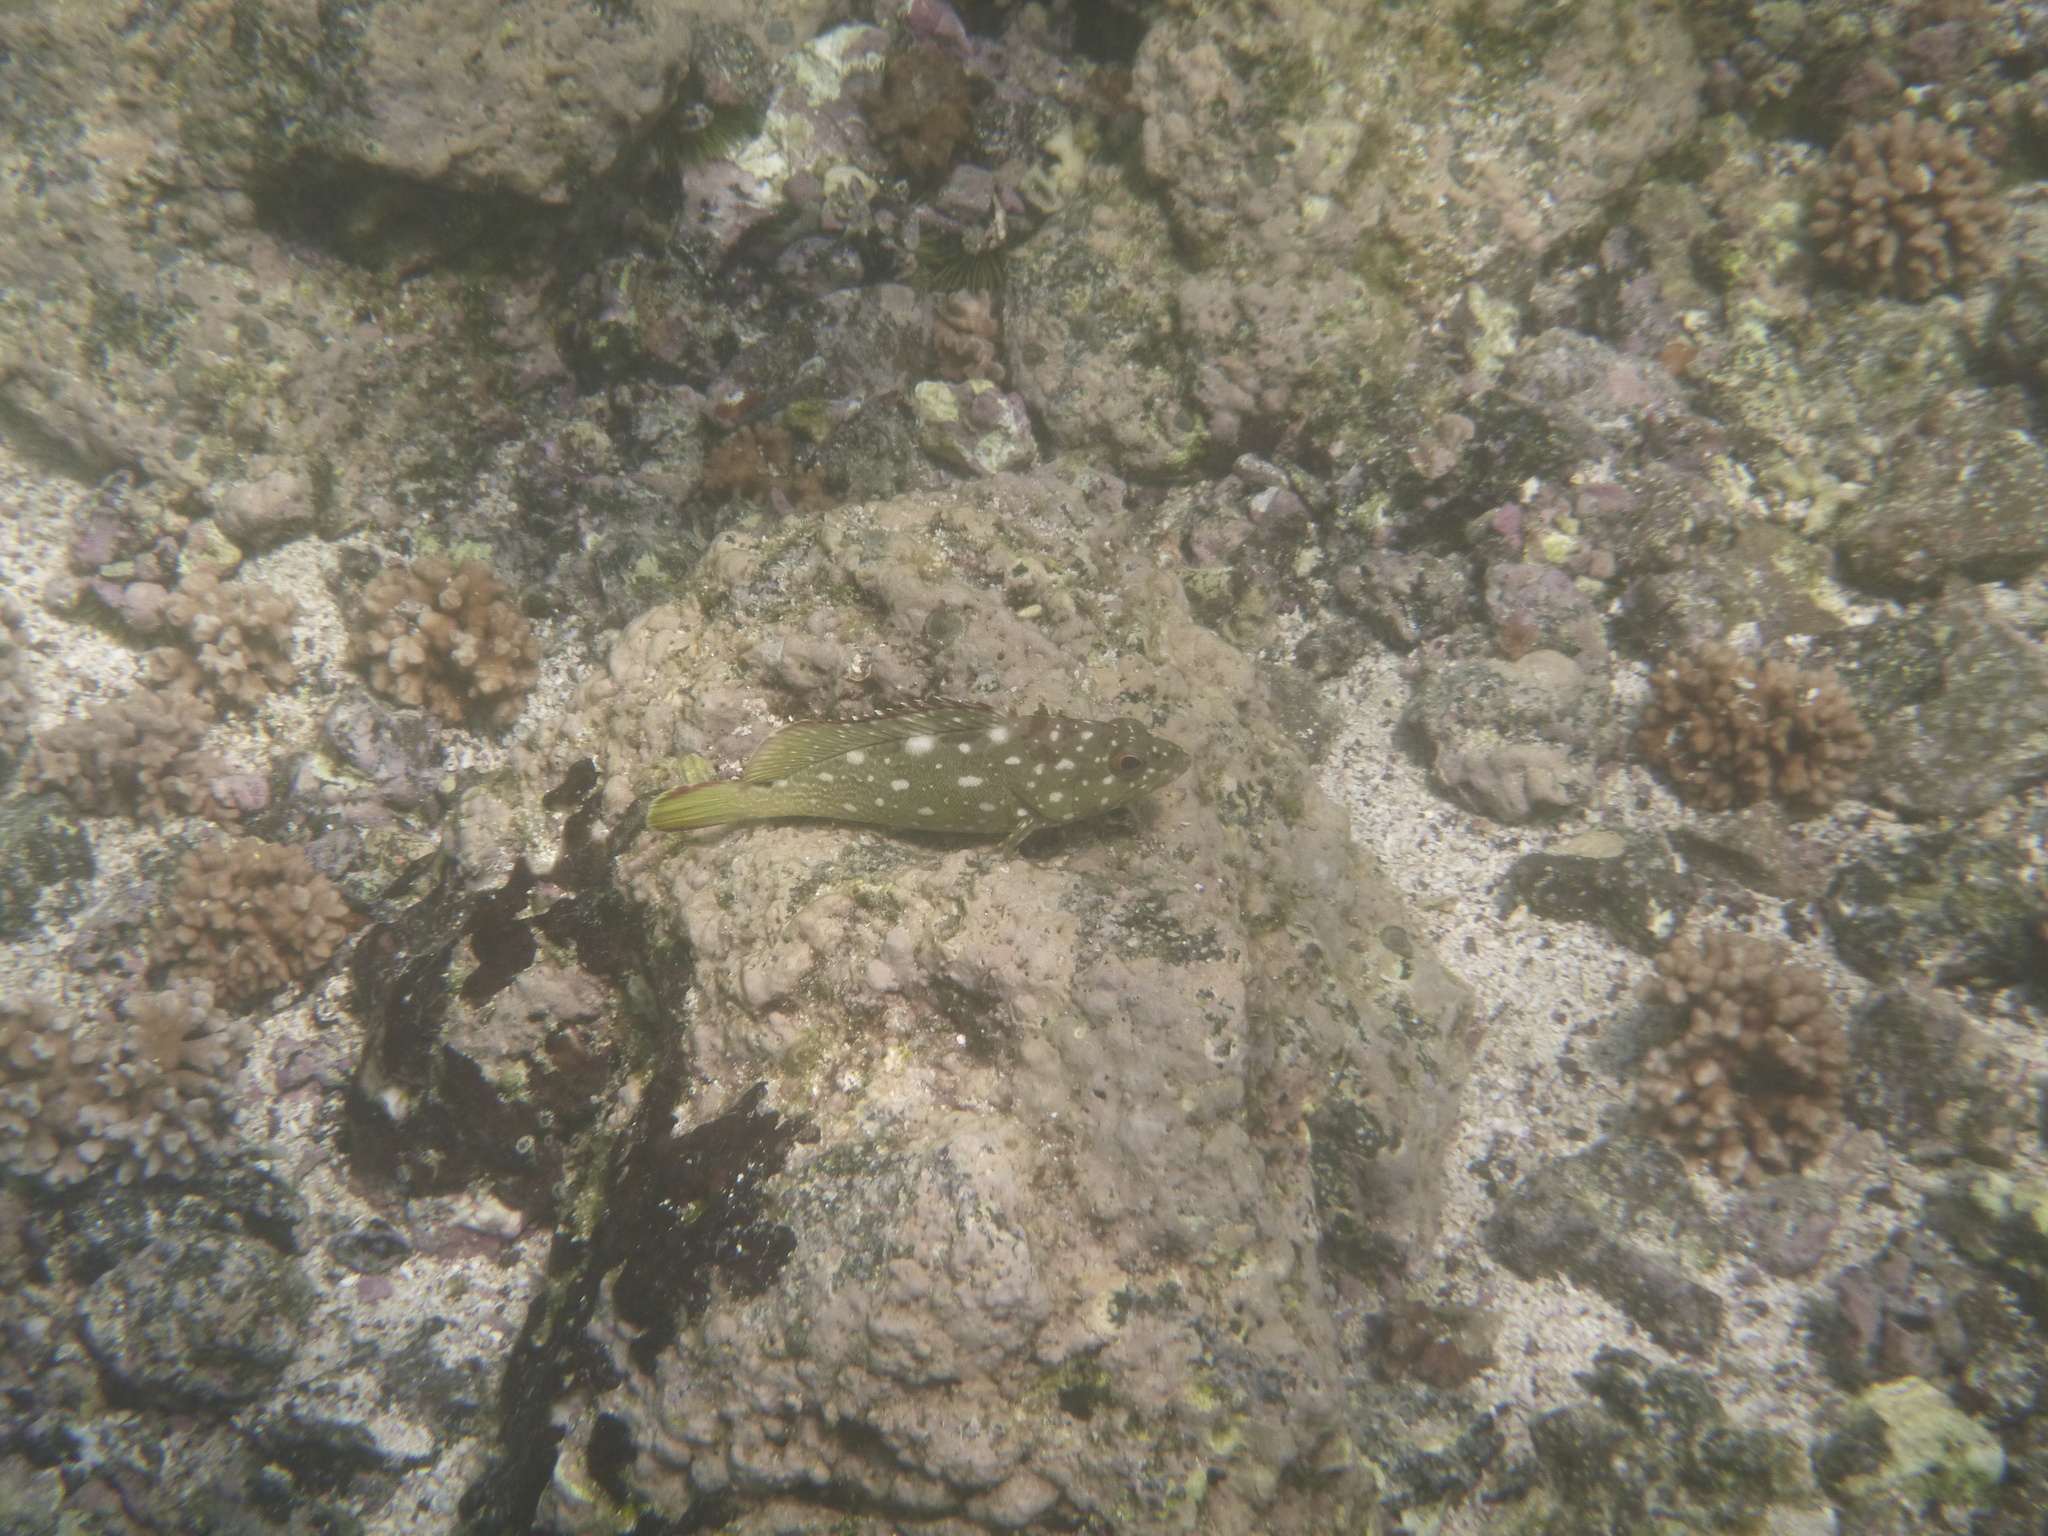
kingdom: Animalia
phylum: Chordata
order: Perciformes
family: Serranidae
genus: Epinephelus
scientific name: Epinephelus labriformis
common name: Flag cabrilla
